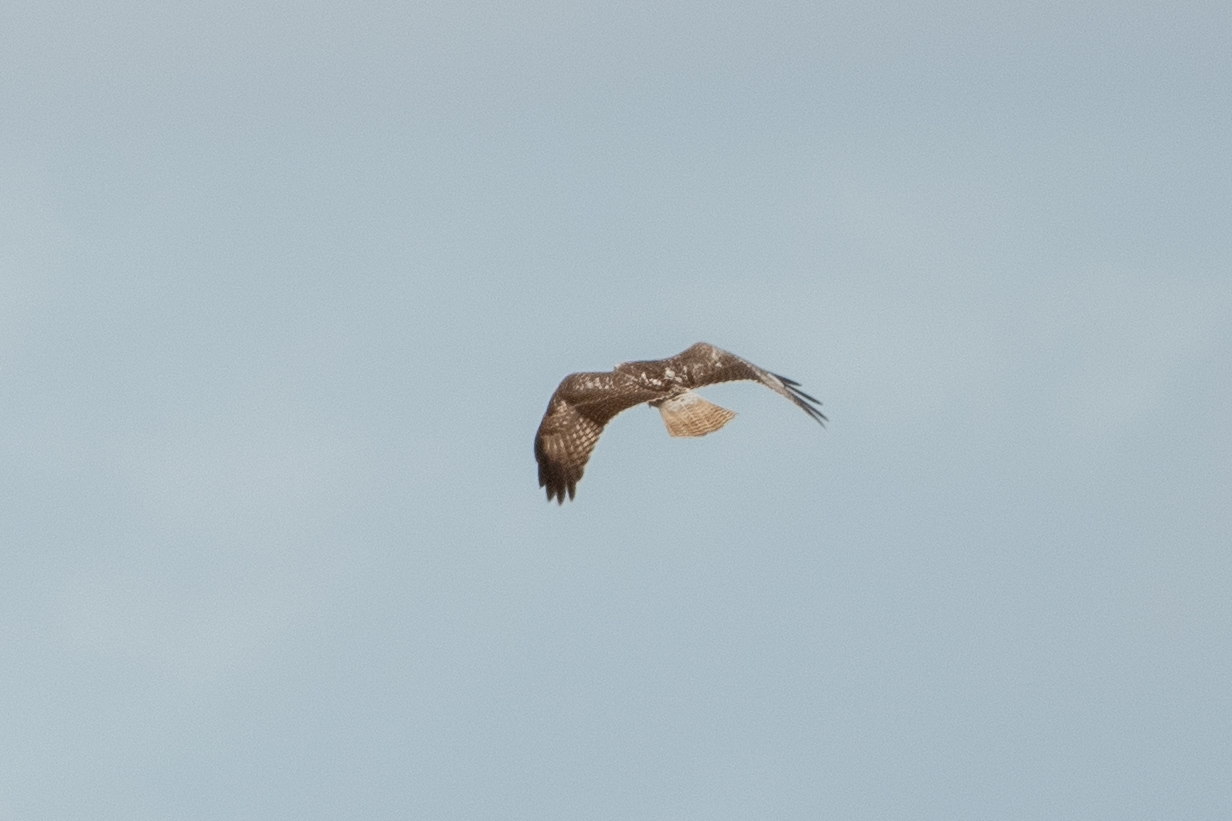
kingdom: Animalia
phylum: Chordata
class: Aves
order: Accipitriformes
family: Accipitridae
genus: Buteo
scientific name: Buteo jamaicensis
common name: Red-tailed hawk
